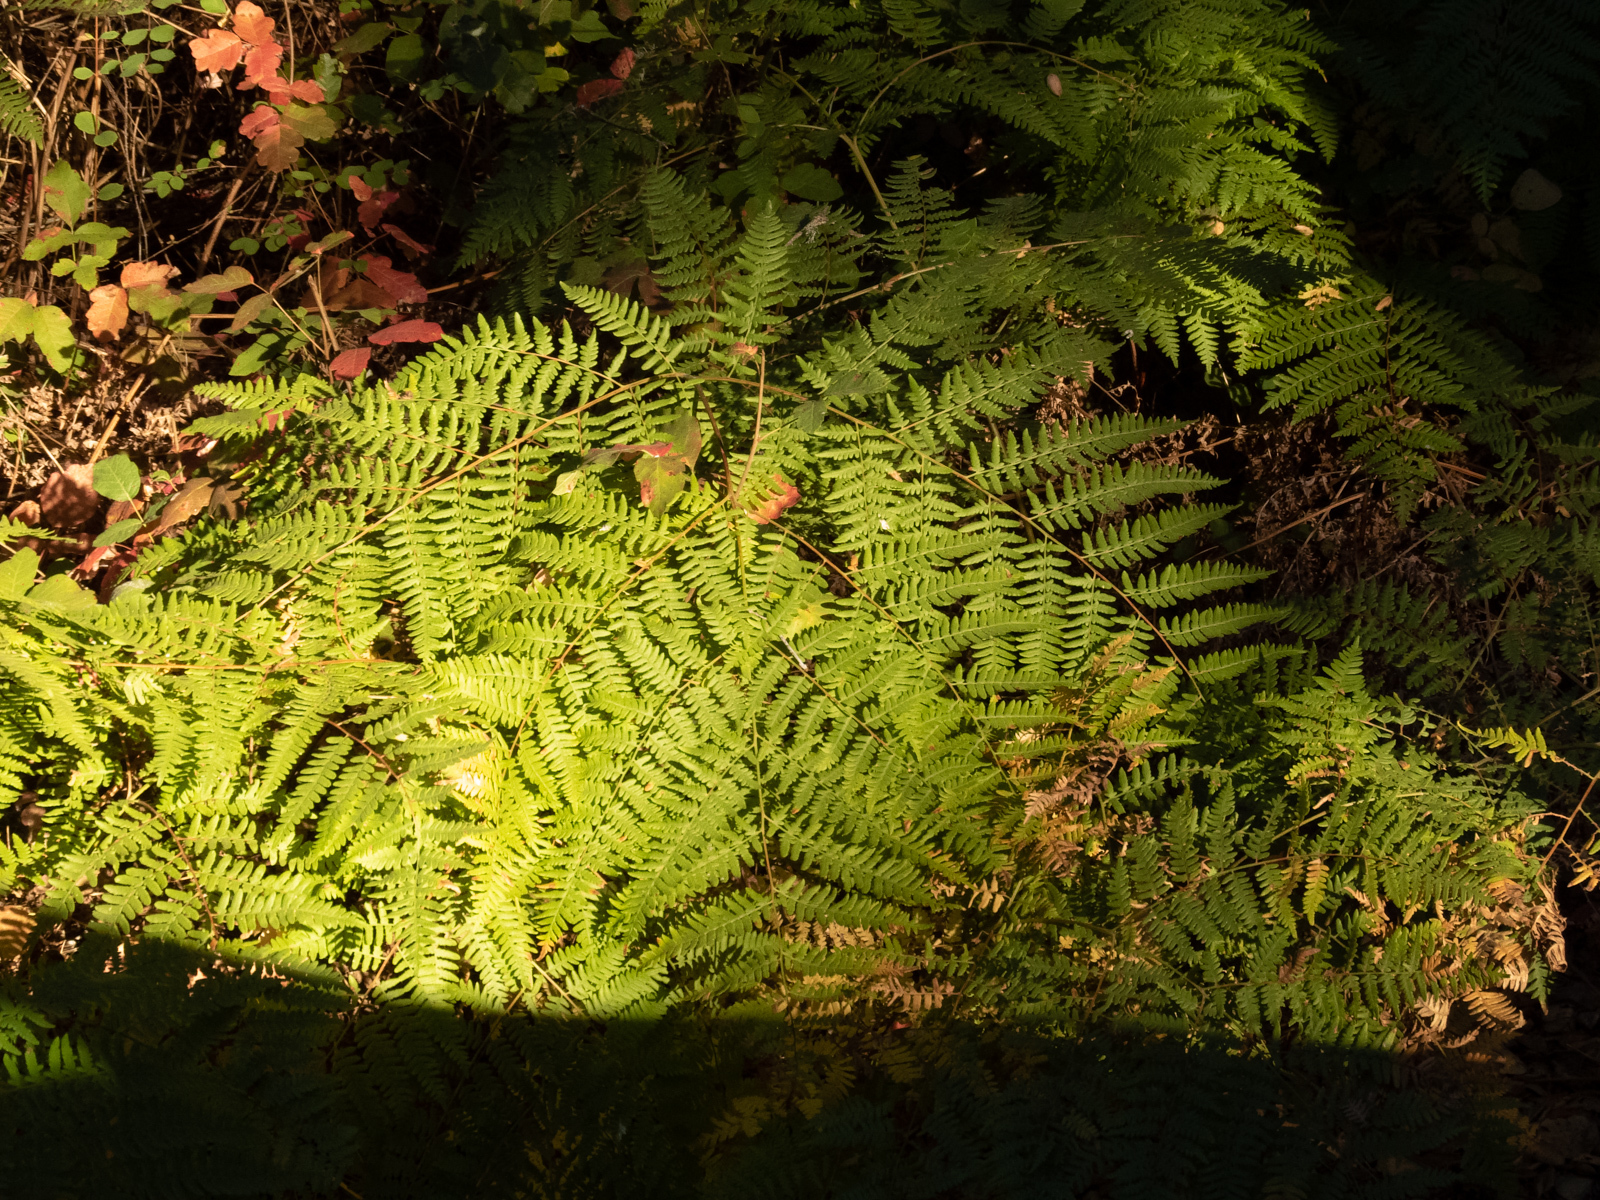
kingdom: Plantae
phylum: Tracheophyta
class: Polypodiopsida
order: Polypodiales
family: Dennstaedtiaceae
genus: Pteridium
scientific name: Pteridium aquilinum
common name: Bracken
